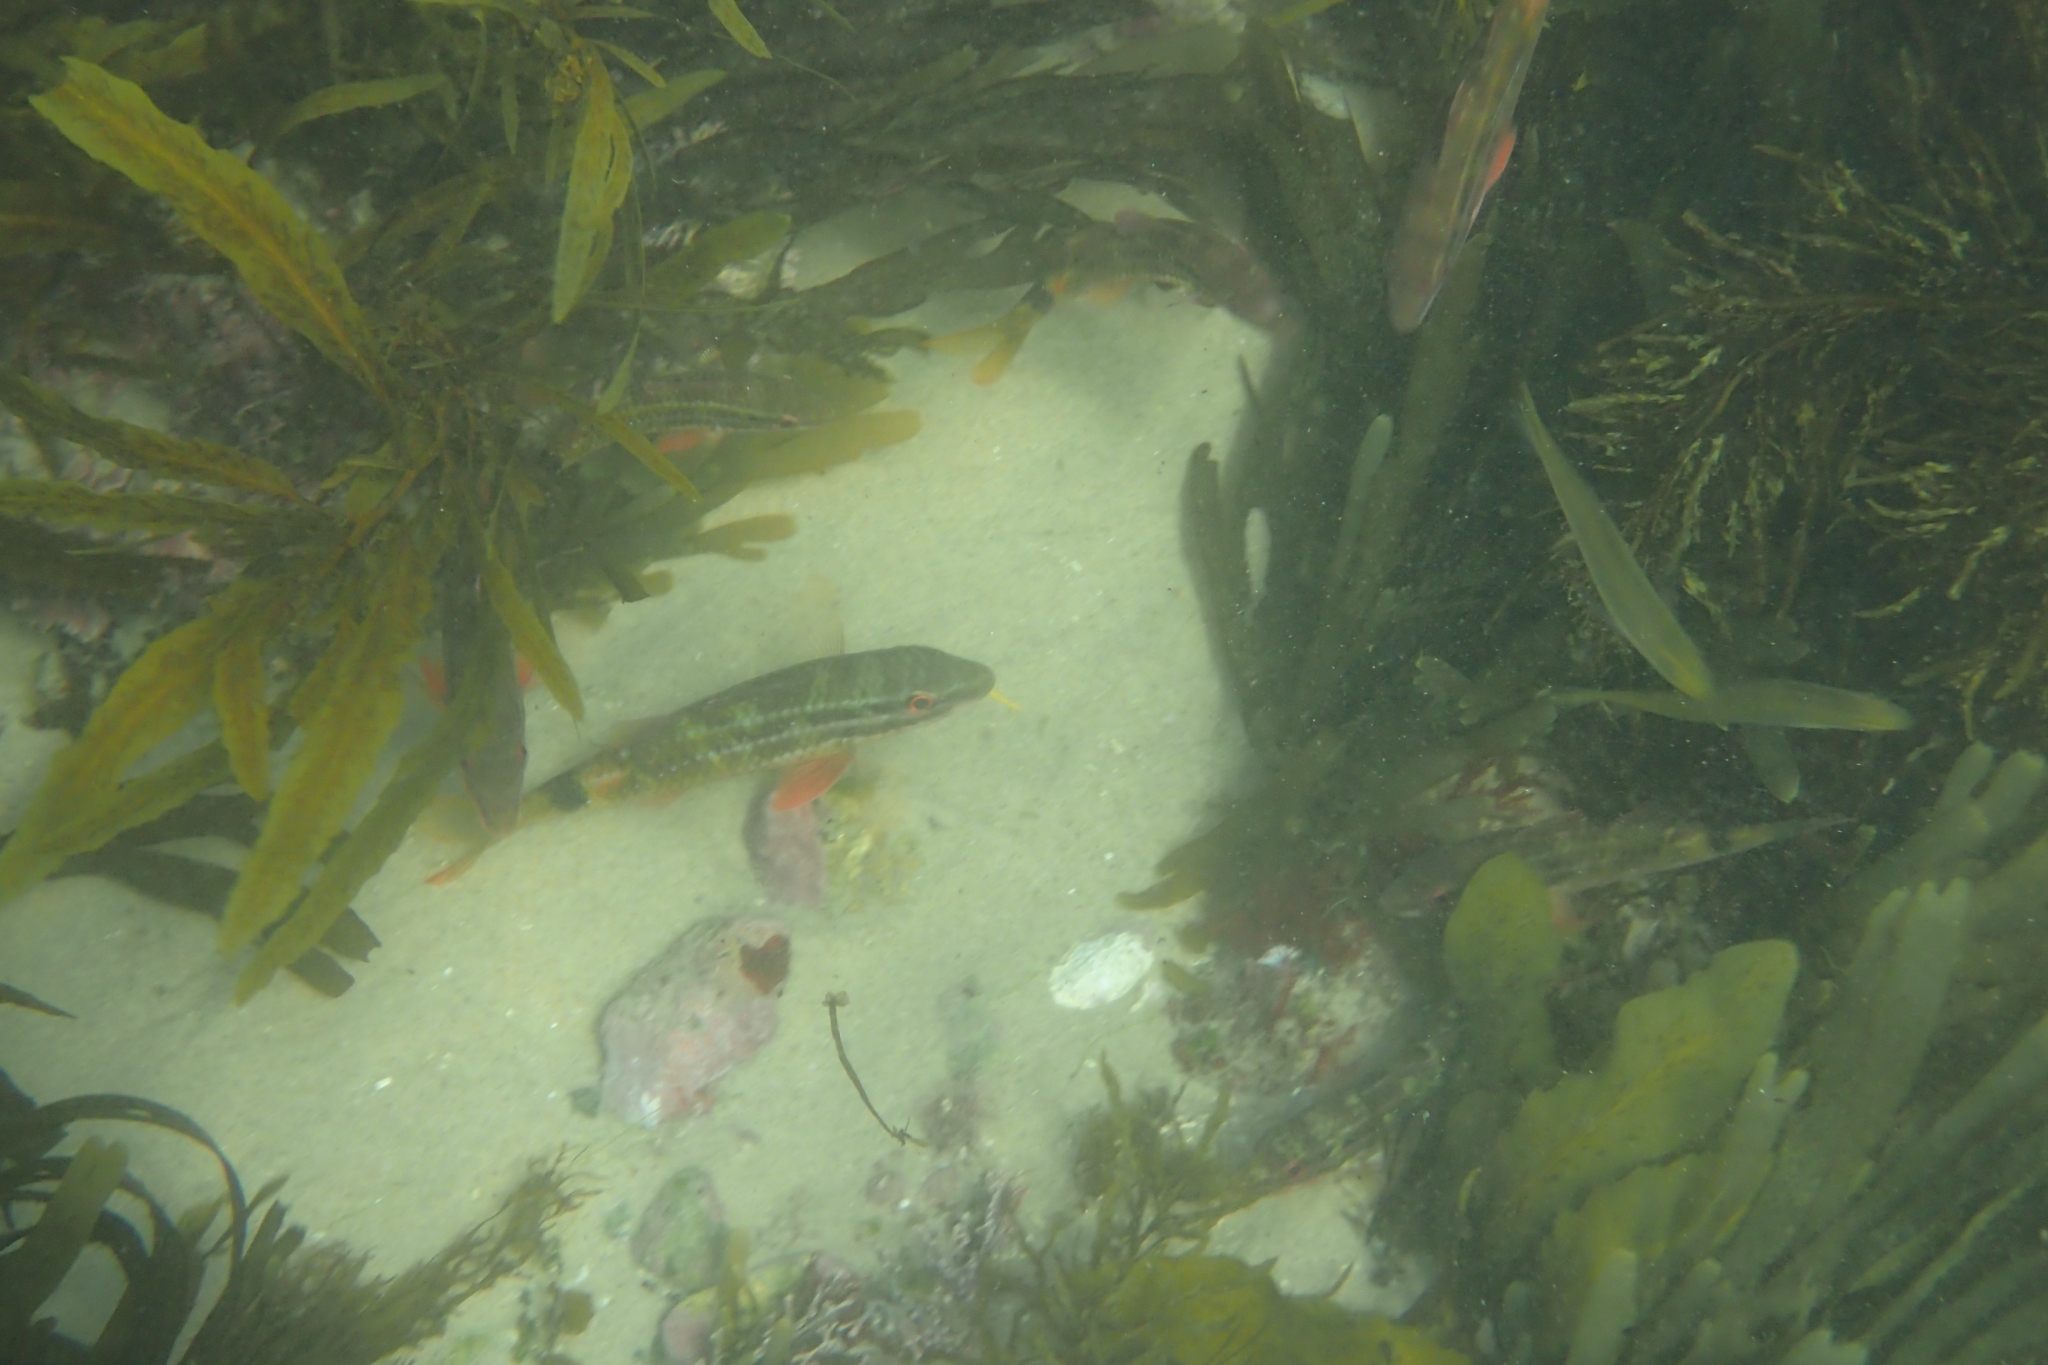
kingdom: Animalia
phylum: Chordata
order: Perciformes
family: Mullidae
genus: Parupeneus
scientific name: Parupeneus spilurus
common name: Blackspot goatfish
